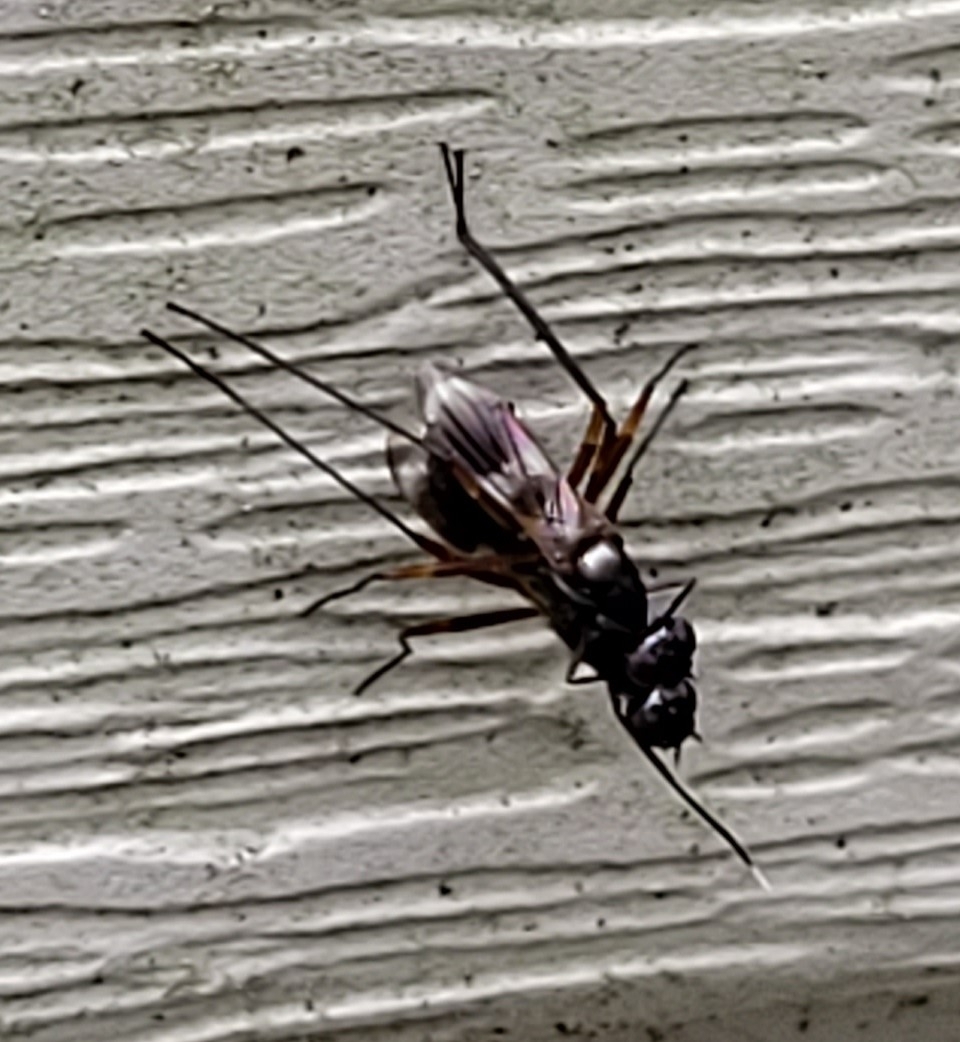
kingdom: Animalia
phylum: Arthropoda
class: Insecta
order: Diptera
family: Micropezidae
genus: Taeniaptera
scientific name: Taeniaptera trivittata
